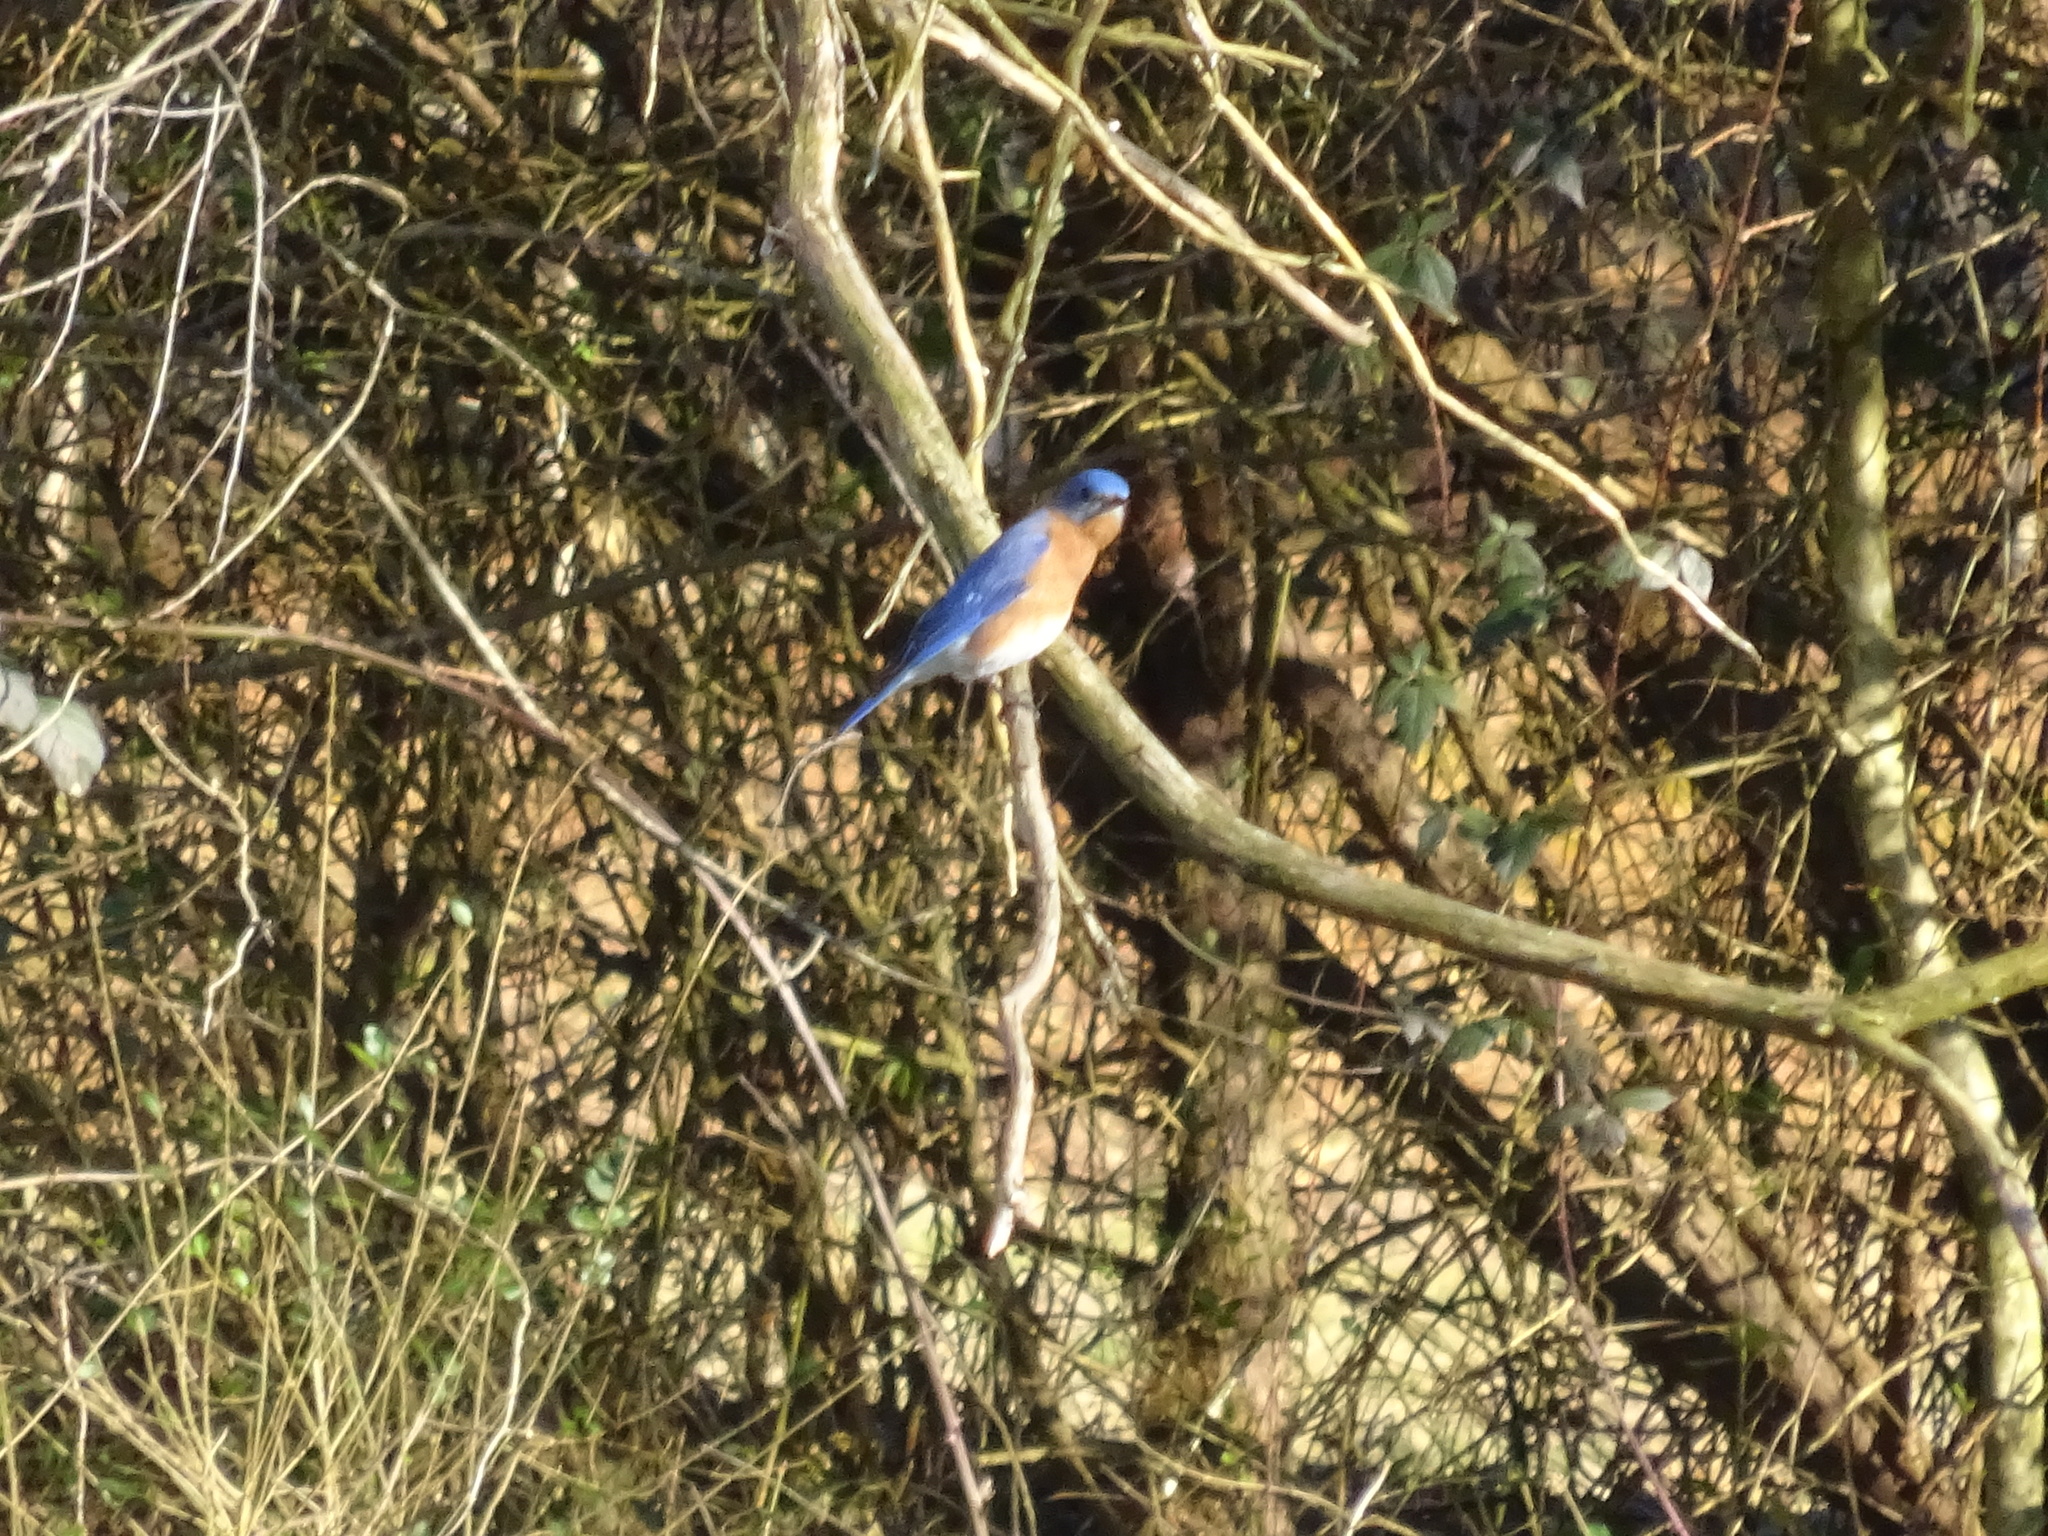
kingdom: Animalia
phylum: Chordata
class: Aves
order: Passeriformes
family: Turdidae
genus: Sialia
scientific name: Sialia sialis
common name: Eastern bluebird
